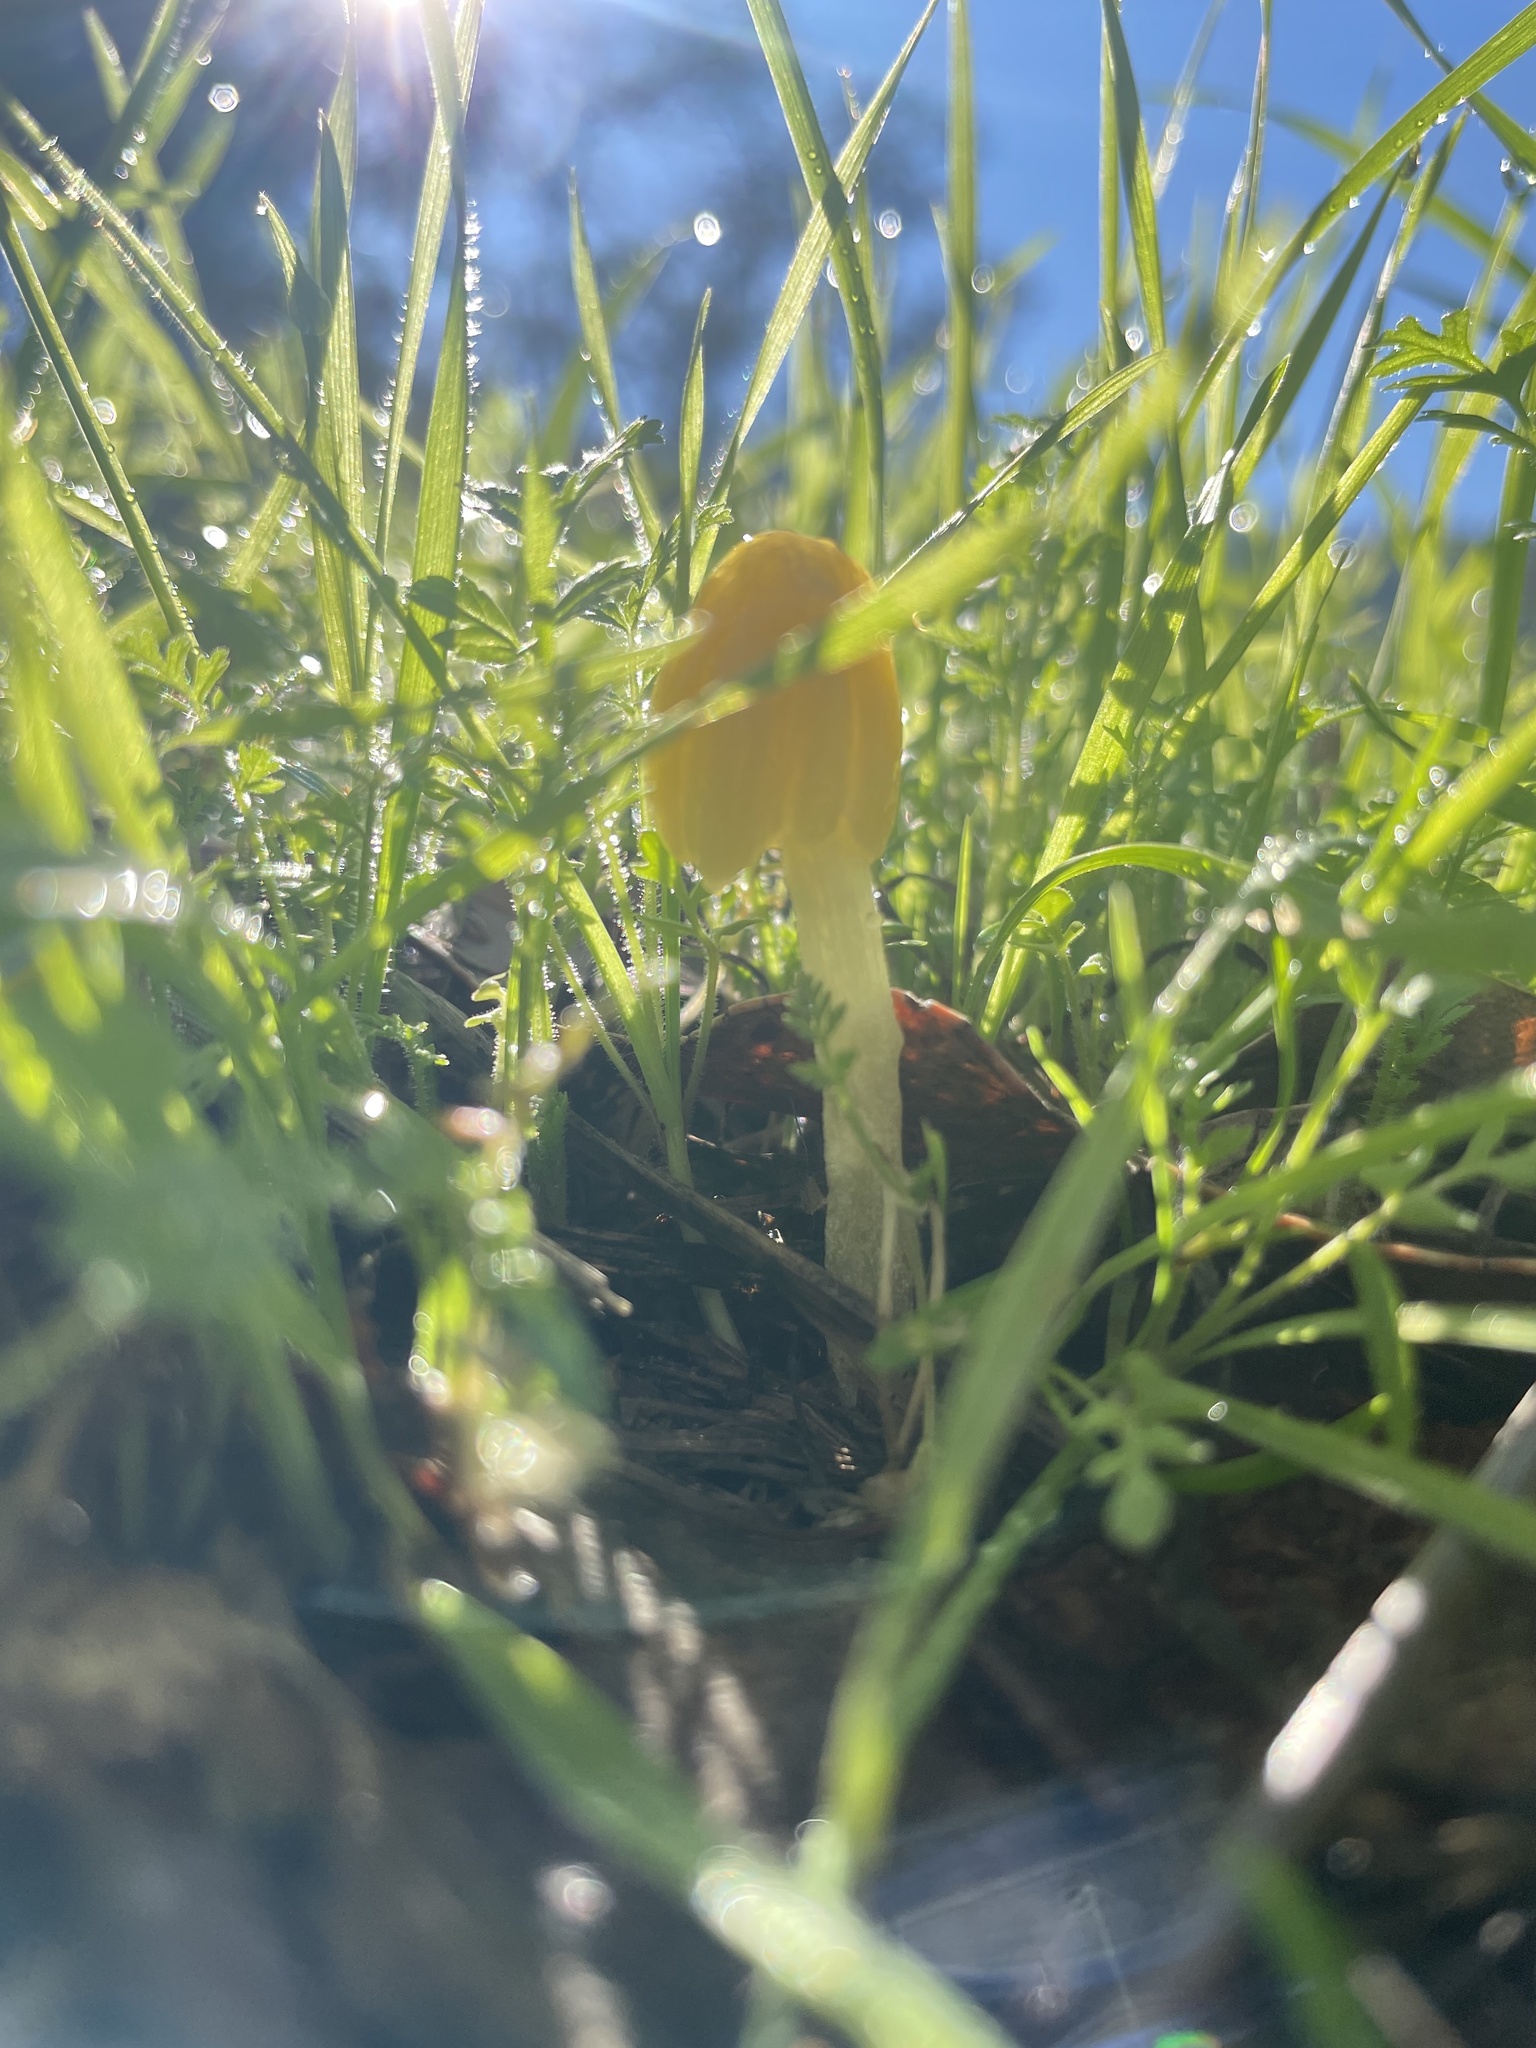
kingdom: Fungi
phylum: Basidiomycota
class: Agaricomycetes
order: Agaricales
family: Bolbitiaceae
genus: Bolbitius
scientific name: Bolbitius titubans
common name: Yellow fieldcap
